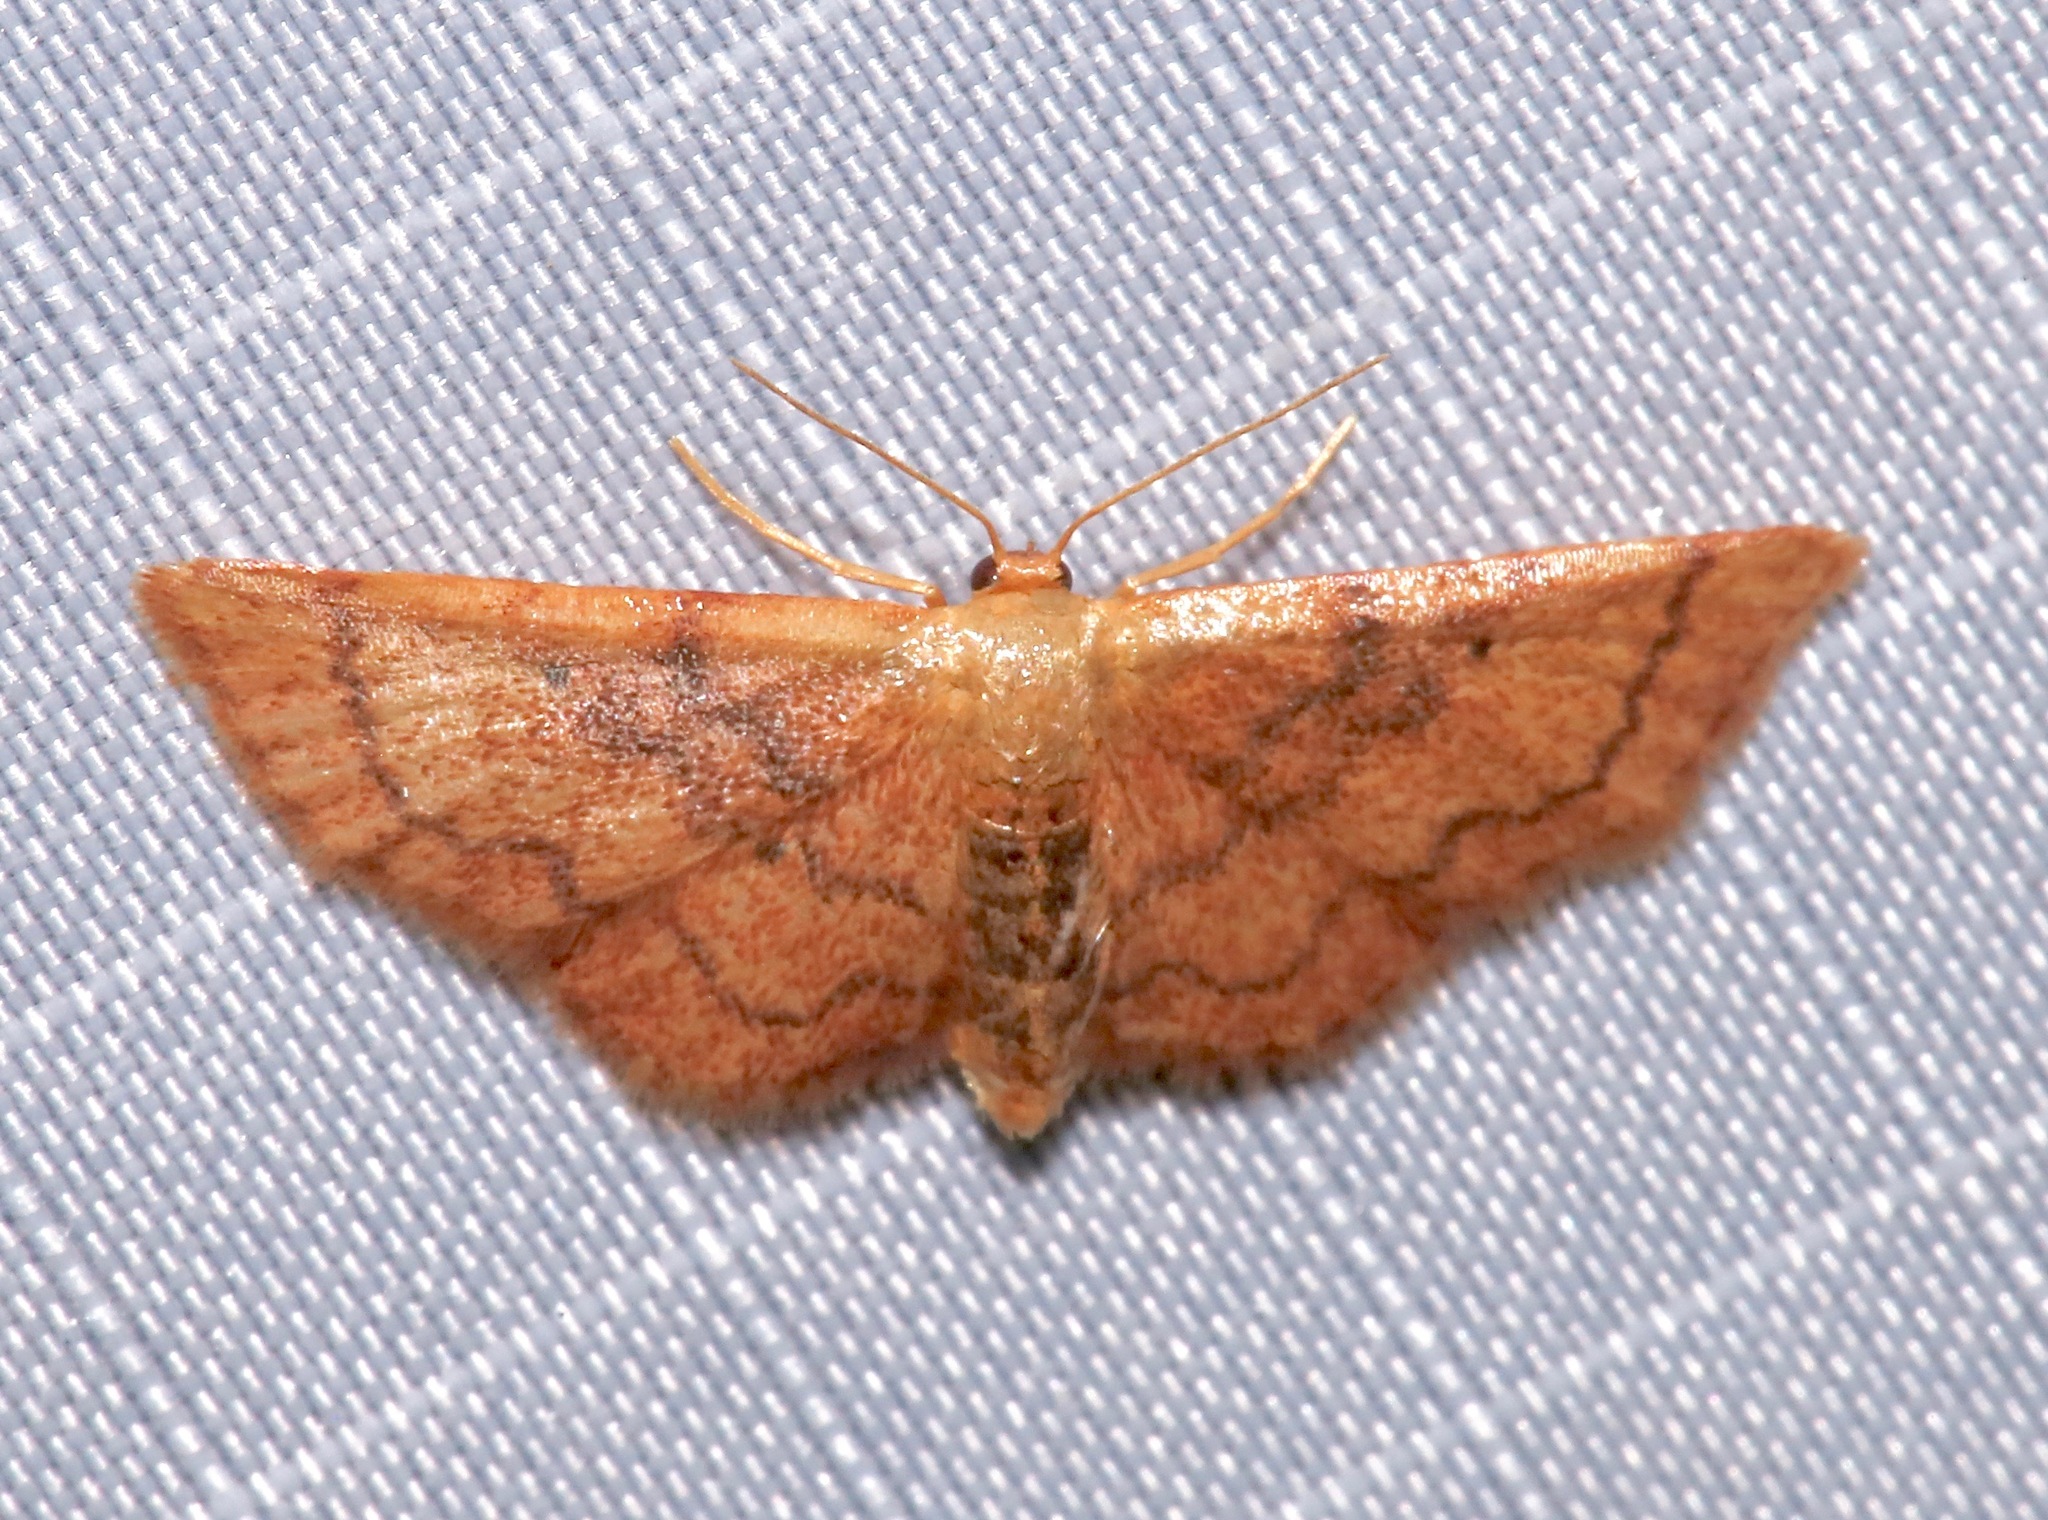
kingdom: Animalia
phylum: Arthropoda
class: Insecta
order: Lepidoptera
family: Geometridae
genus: Idaea
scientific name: Idaea demissaria
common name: Red-bordered wave
